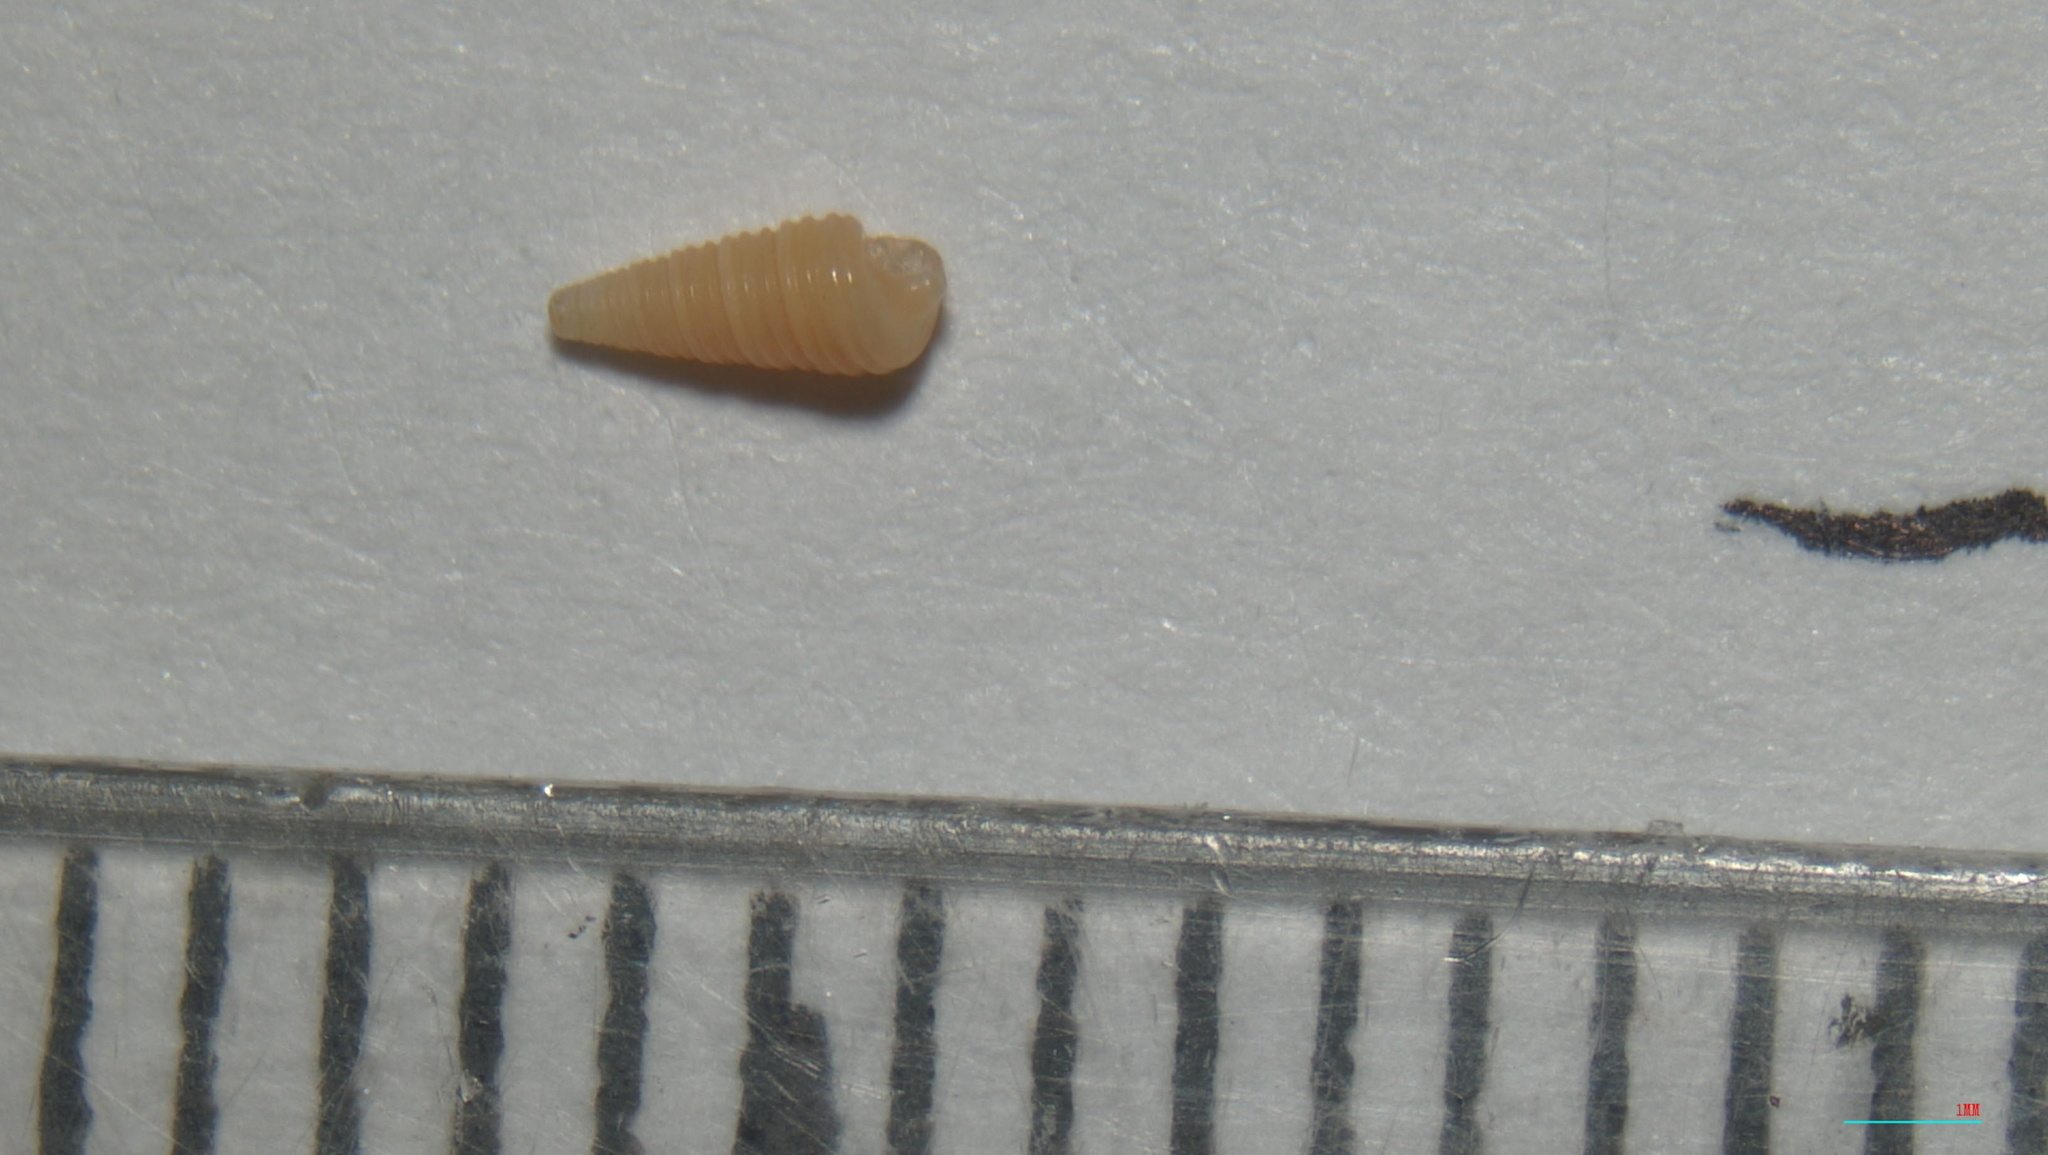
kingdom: Animalia
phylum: Mollusca
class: Gastropoda
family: Cerithiopsidae
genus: Seila
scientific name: Seila adamsii
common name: Adam's miniature cerith
